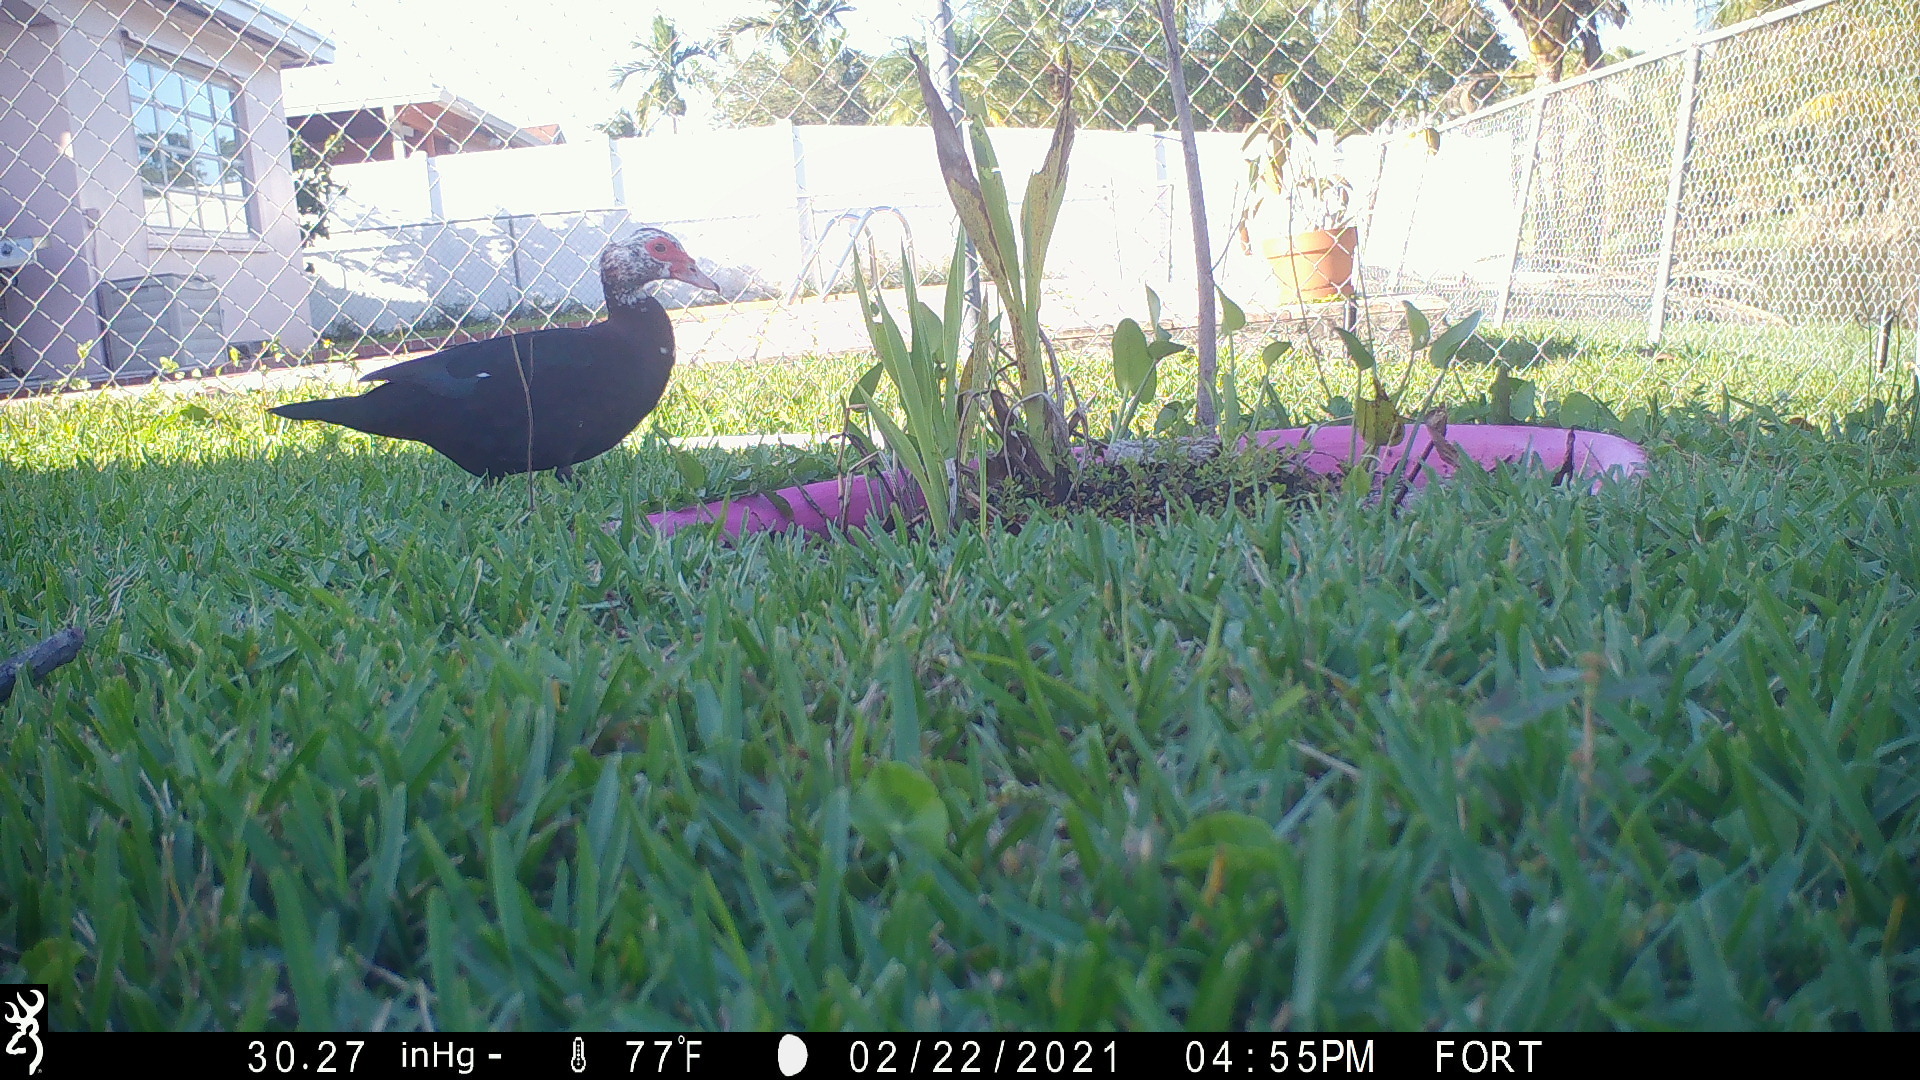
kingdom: Animalia
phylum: Chordata
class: Aves
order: Anseriformes
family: Anatidae
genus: Cairina
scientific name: Cairina moschata
